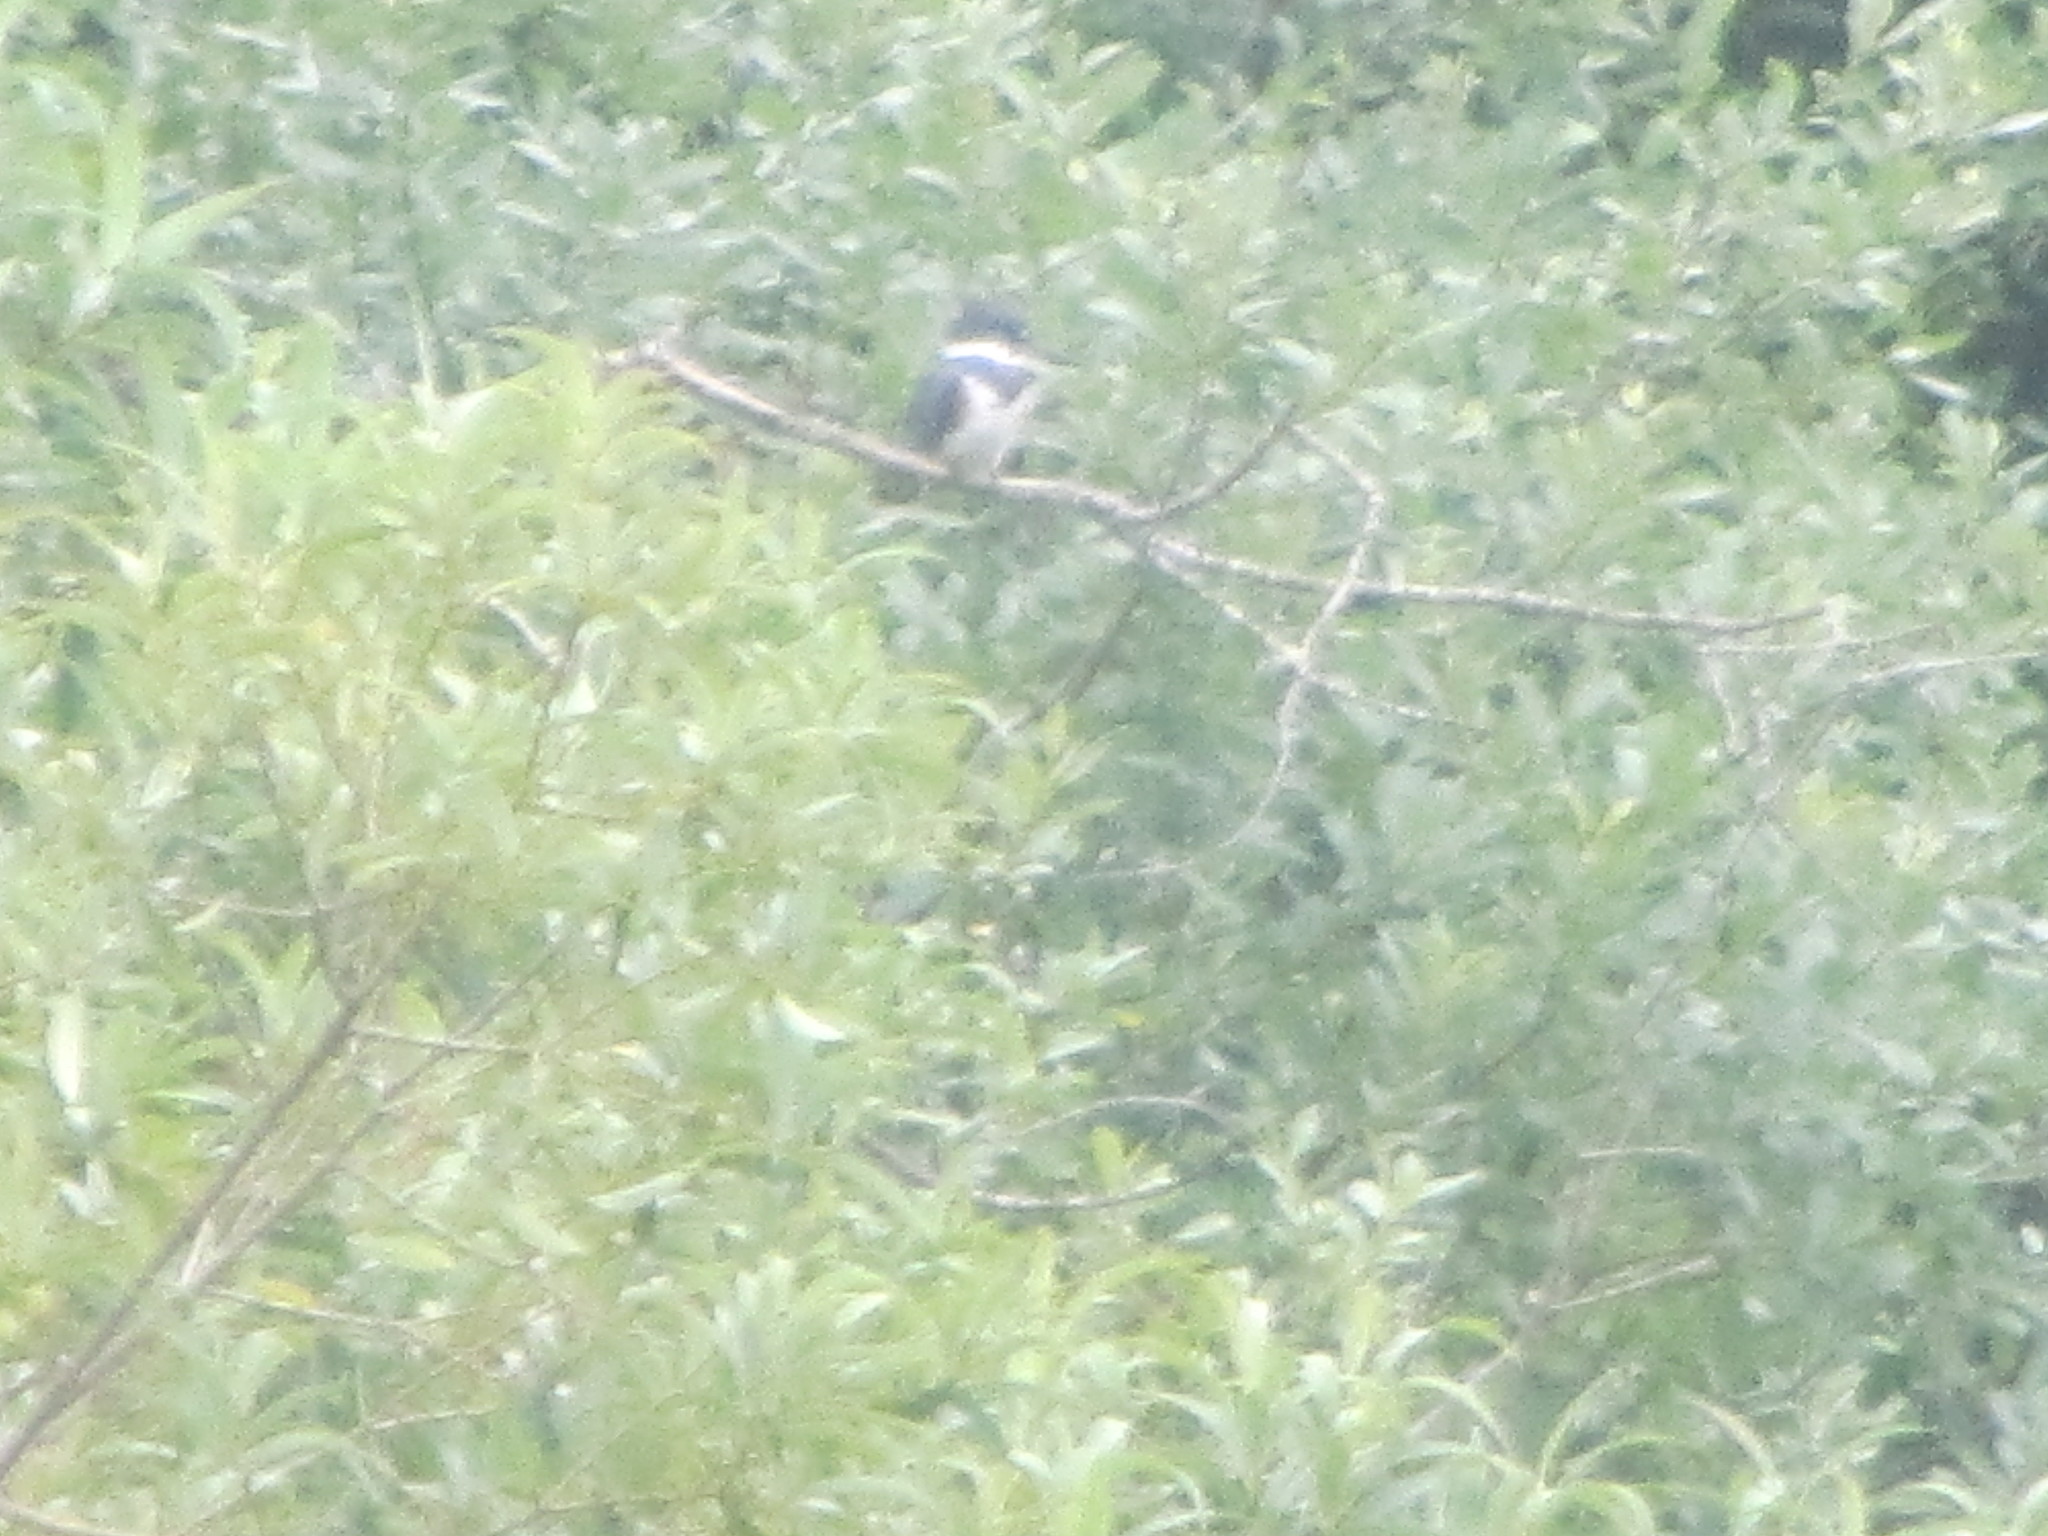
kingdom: Animalia
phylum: Chordata
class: Aves
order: Coraciiformes
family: Alcedinidae
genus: Megaceryle
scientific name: Megaceryle alcyon
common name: Belted kingfisher
